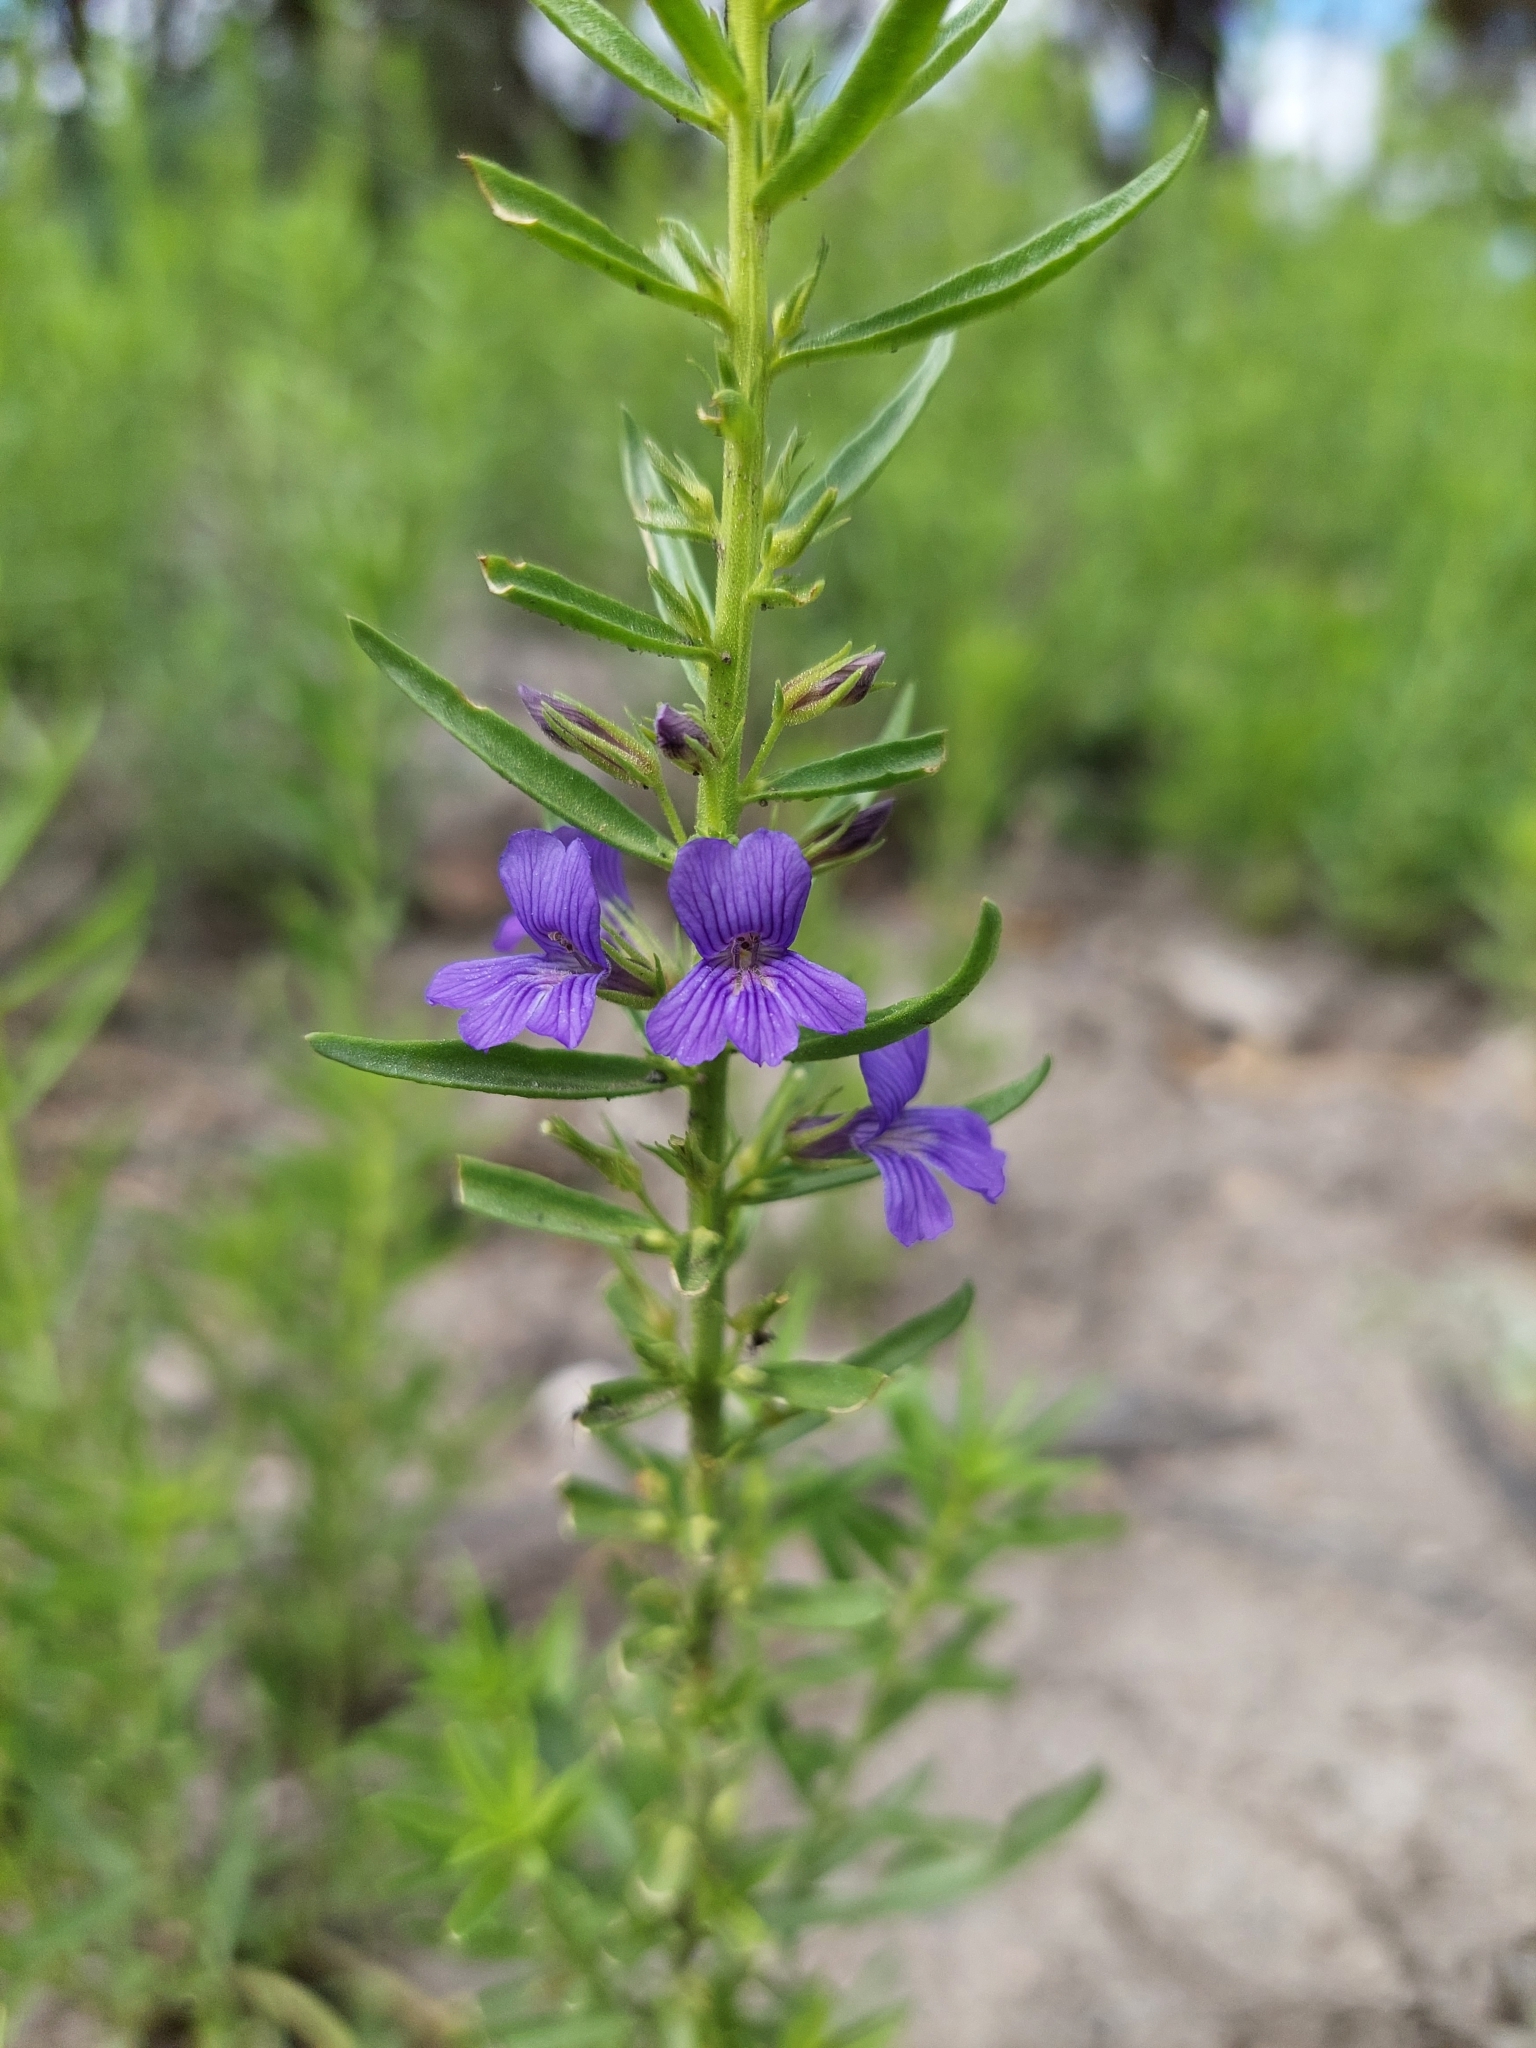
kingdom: Plantae
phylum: Tracheophyta
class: Magnoliopsida
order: Lamiales
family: Plantaginaceae
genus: Stemodia
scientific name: Stemodia florulenta
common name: Bluerod
